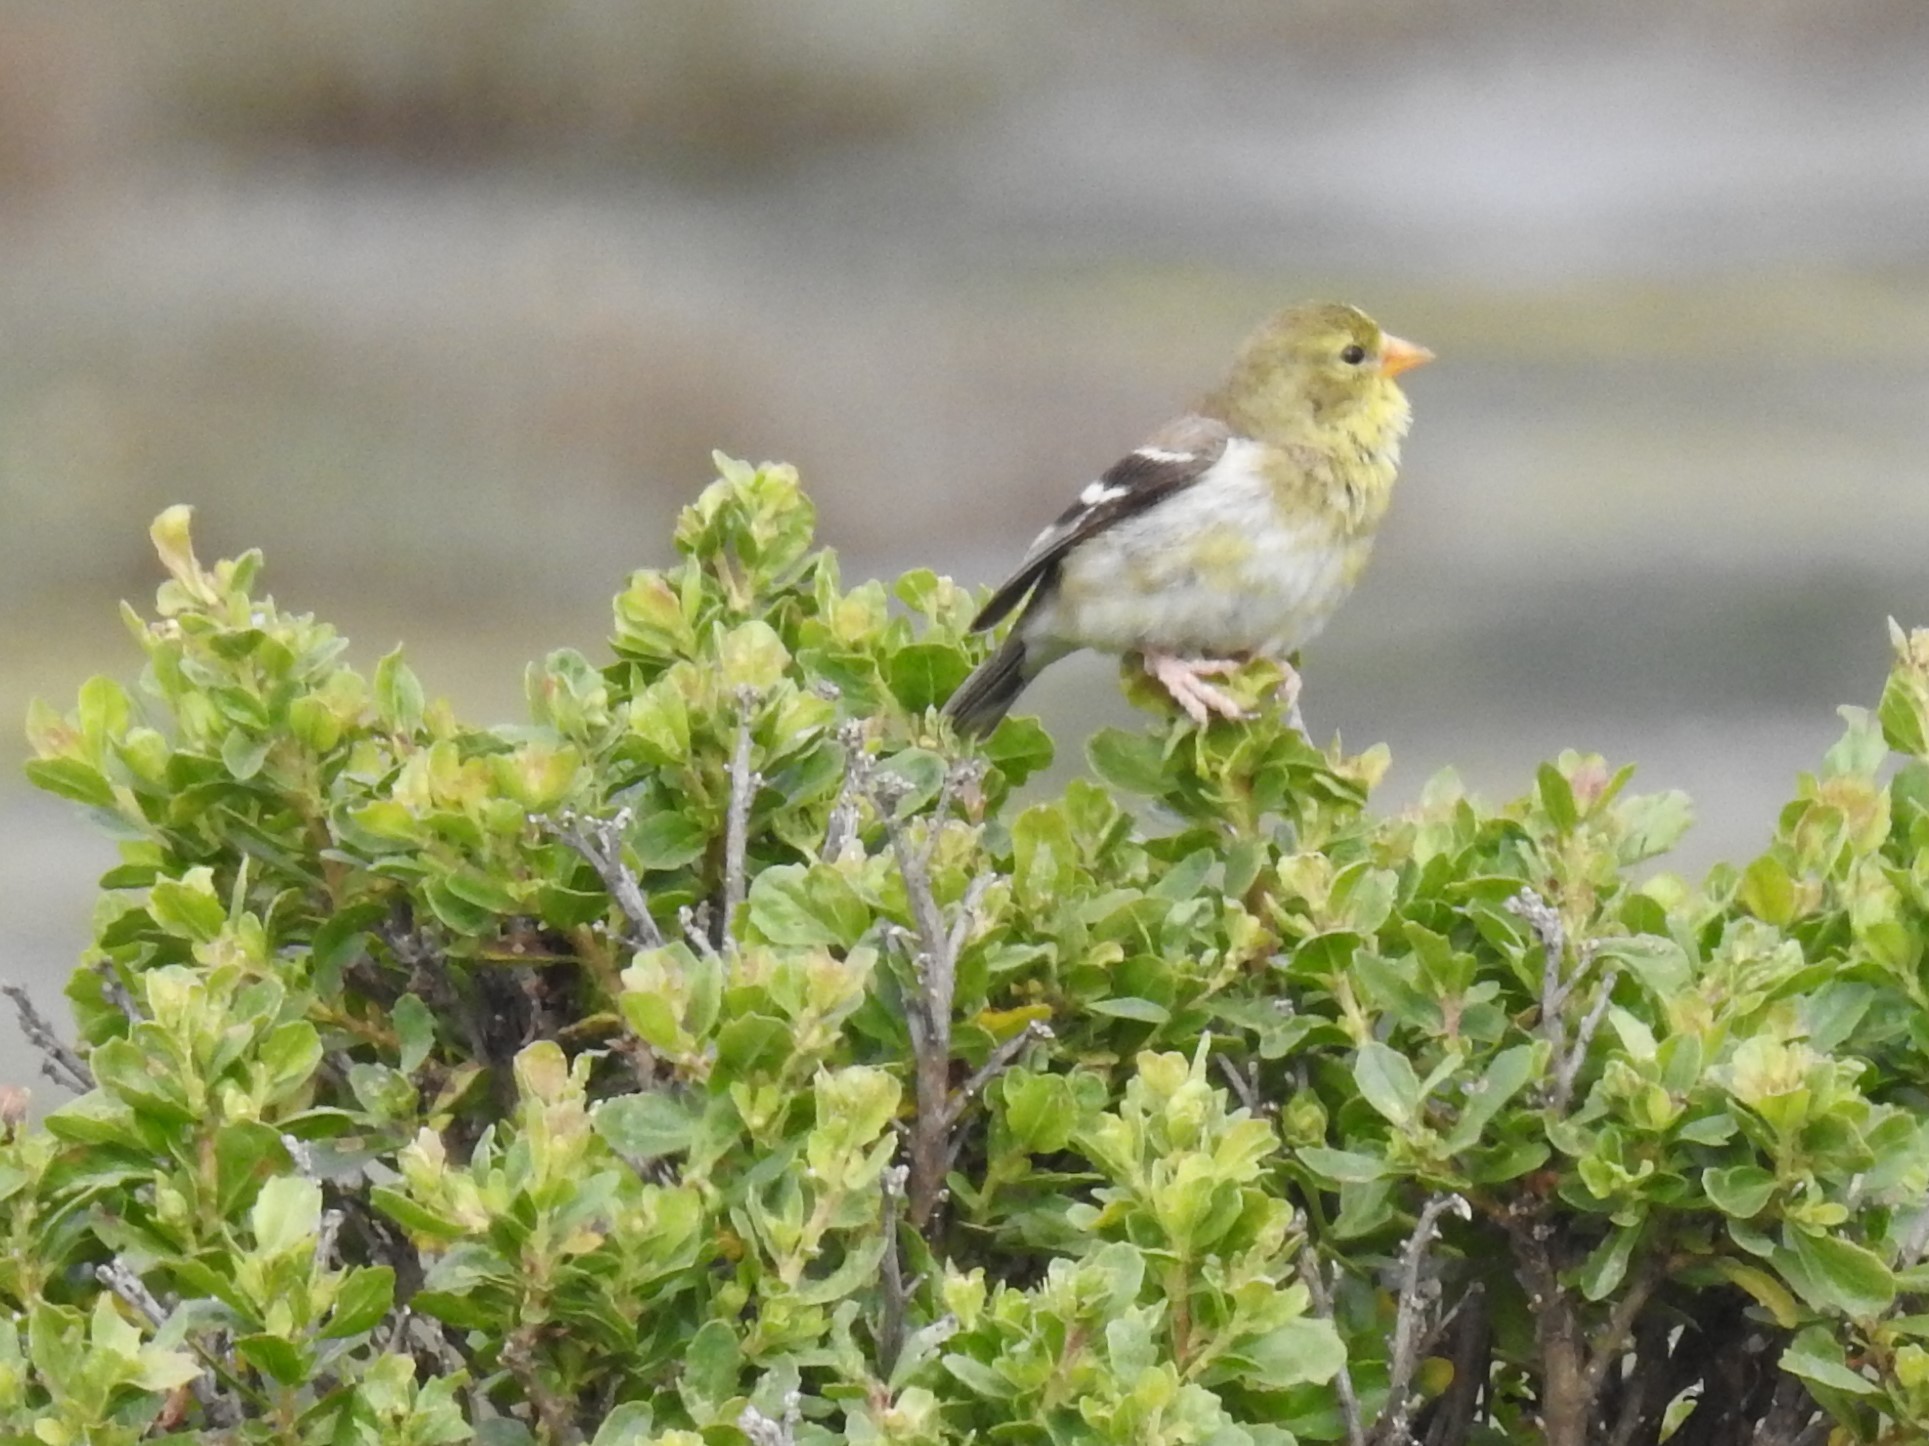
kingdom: Animalia
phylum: Chordata
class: Aves
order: Passeriformes
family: Fringillidae
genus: Spinus
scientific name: Spinus tristis
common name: American goldfinch
